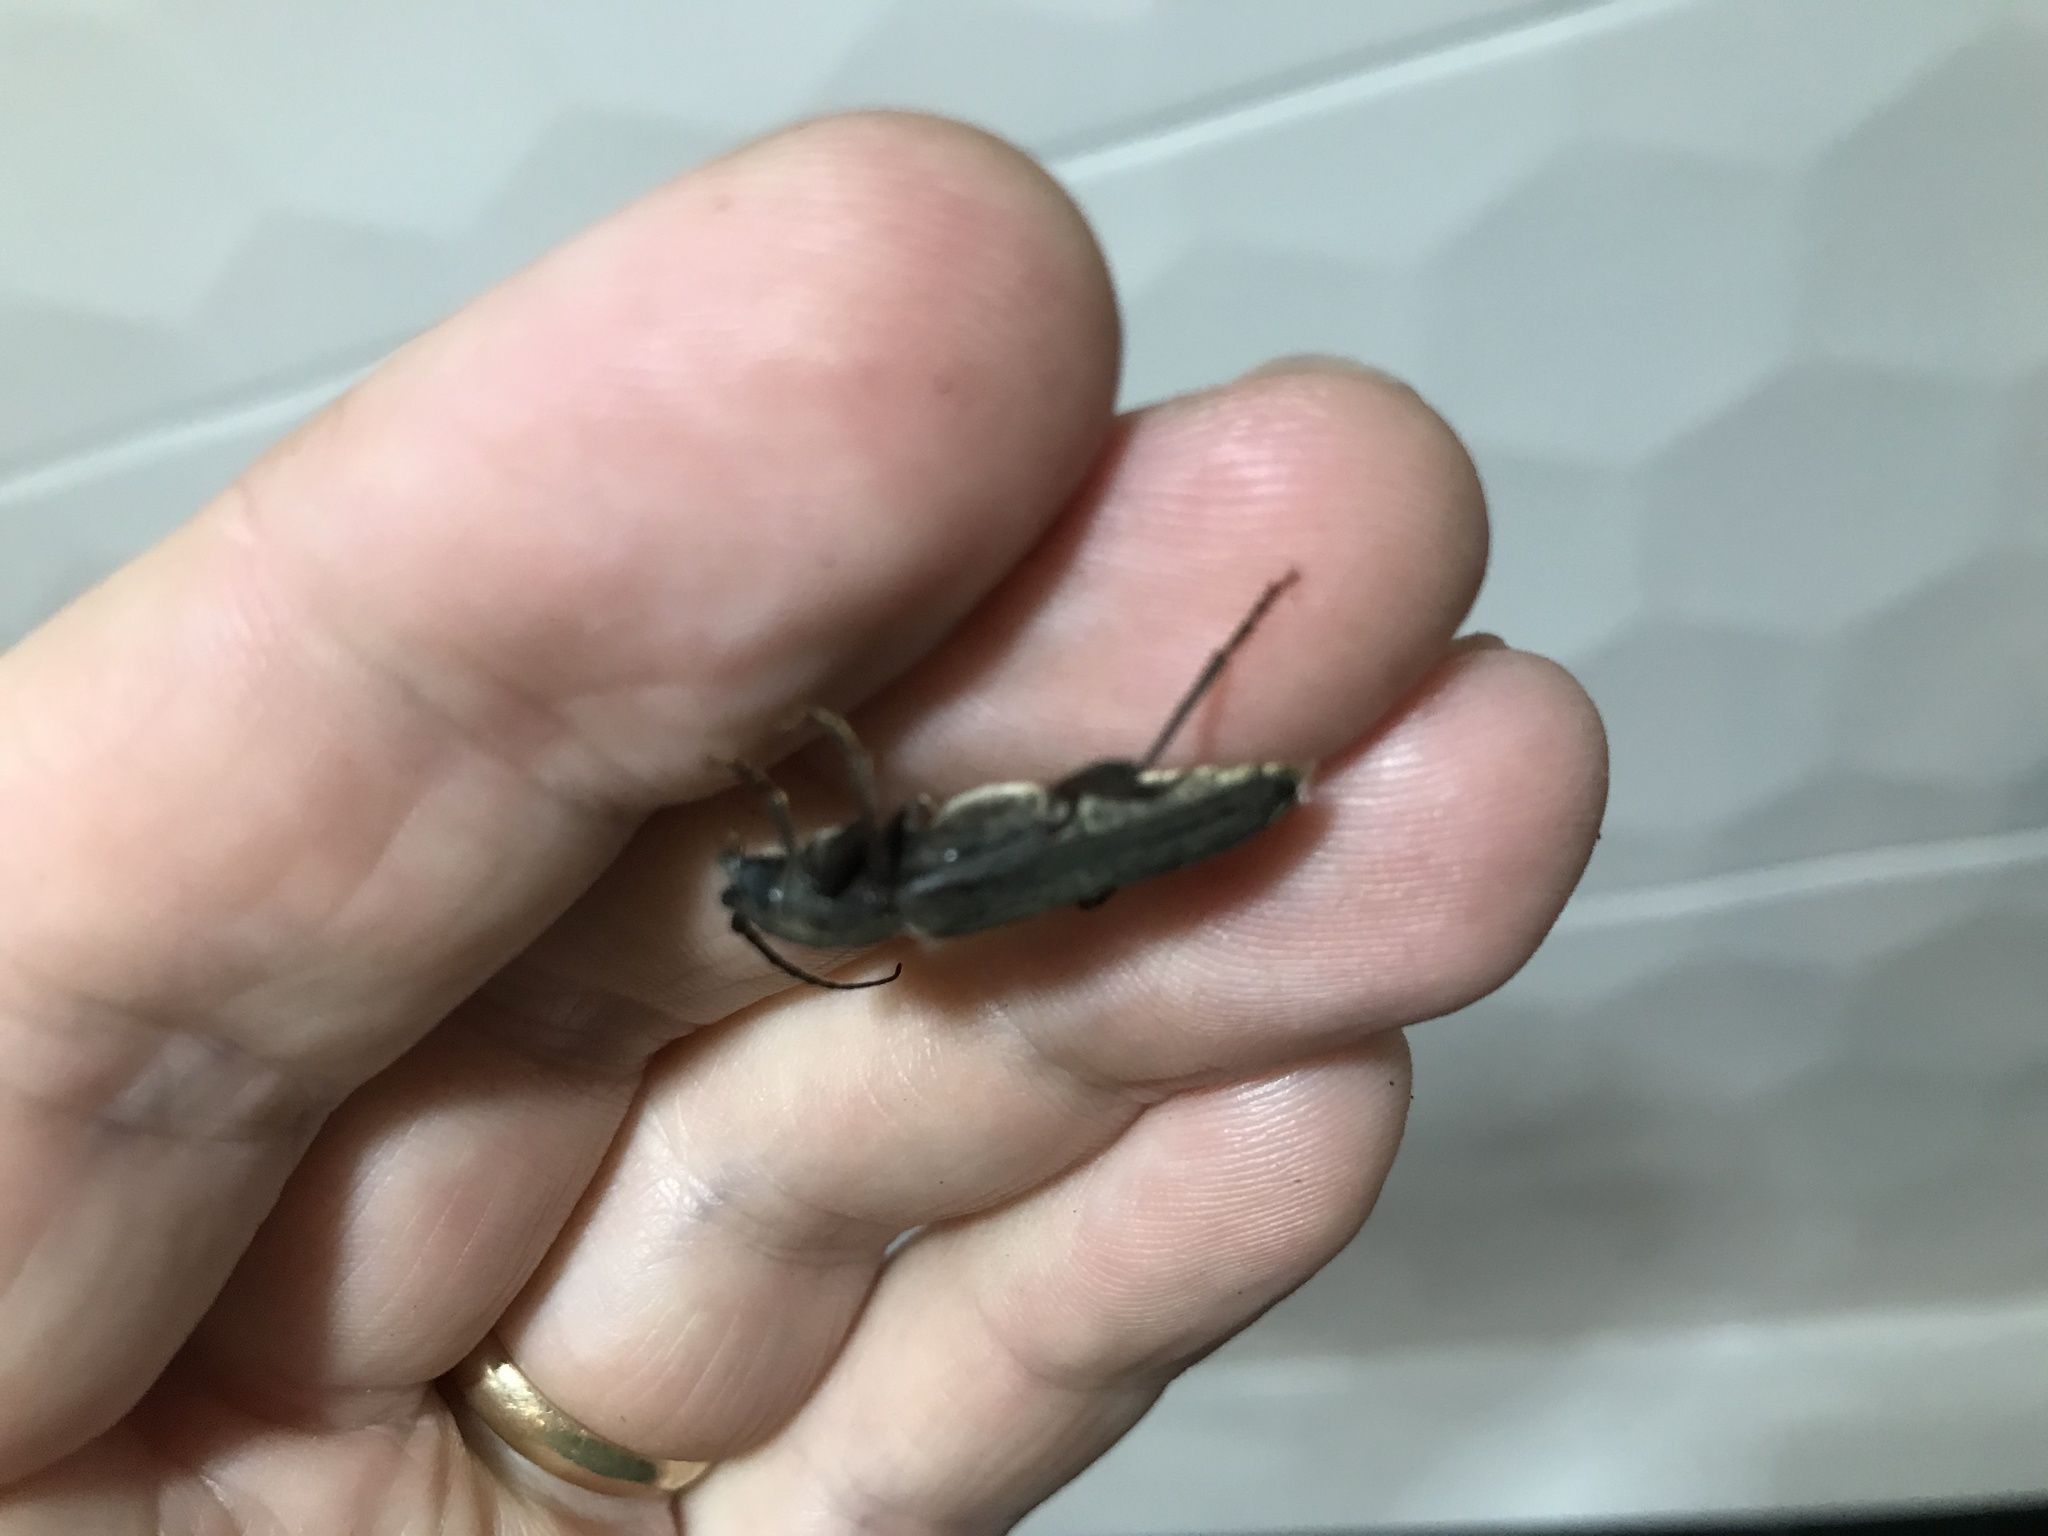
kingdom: Animalia
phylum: Arthropoda
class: Insecta
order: Coleoptera
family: Cerambycidae
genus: Arhopalus
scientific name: Arhopalus ferus
